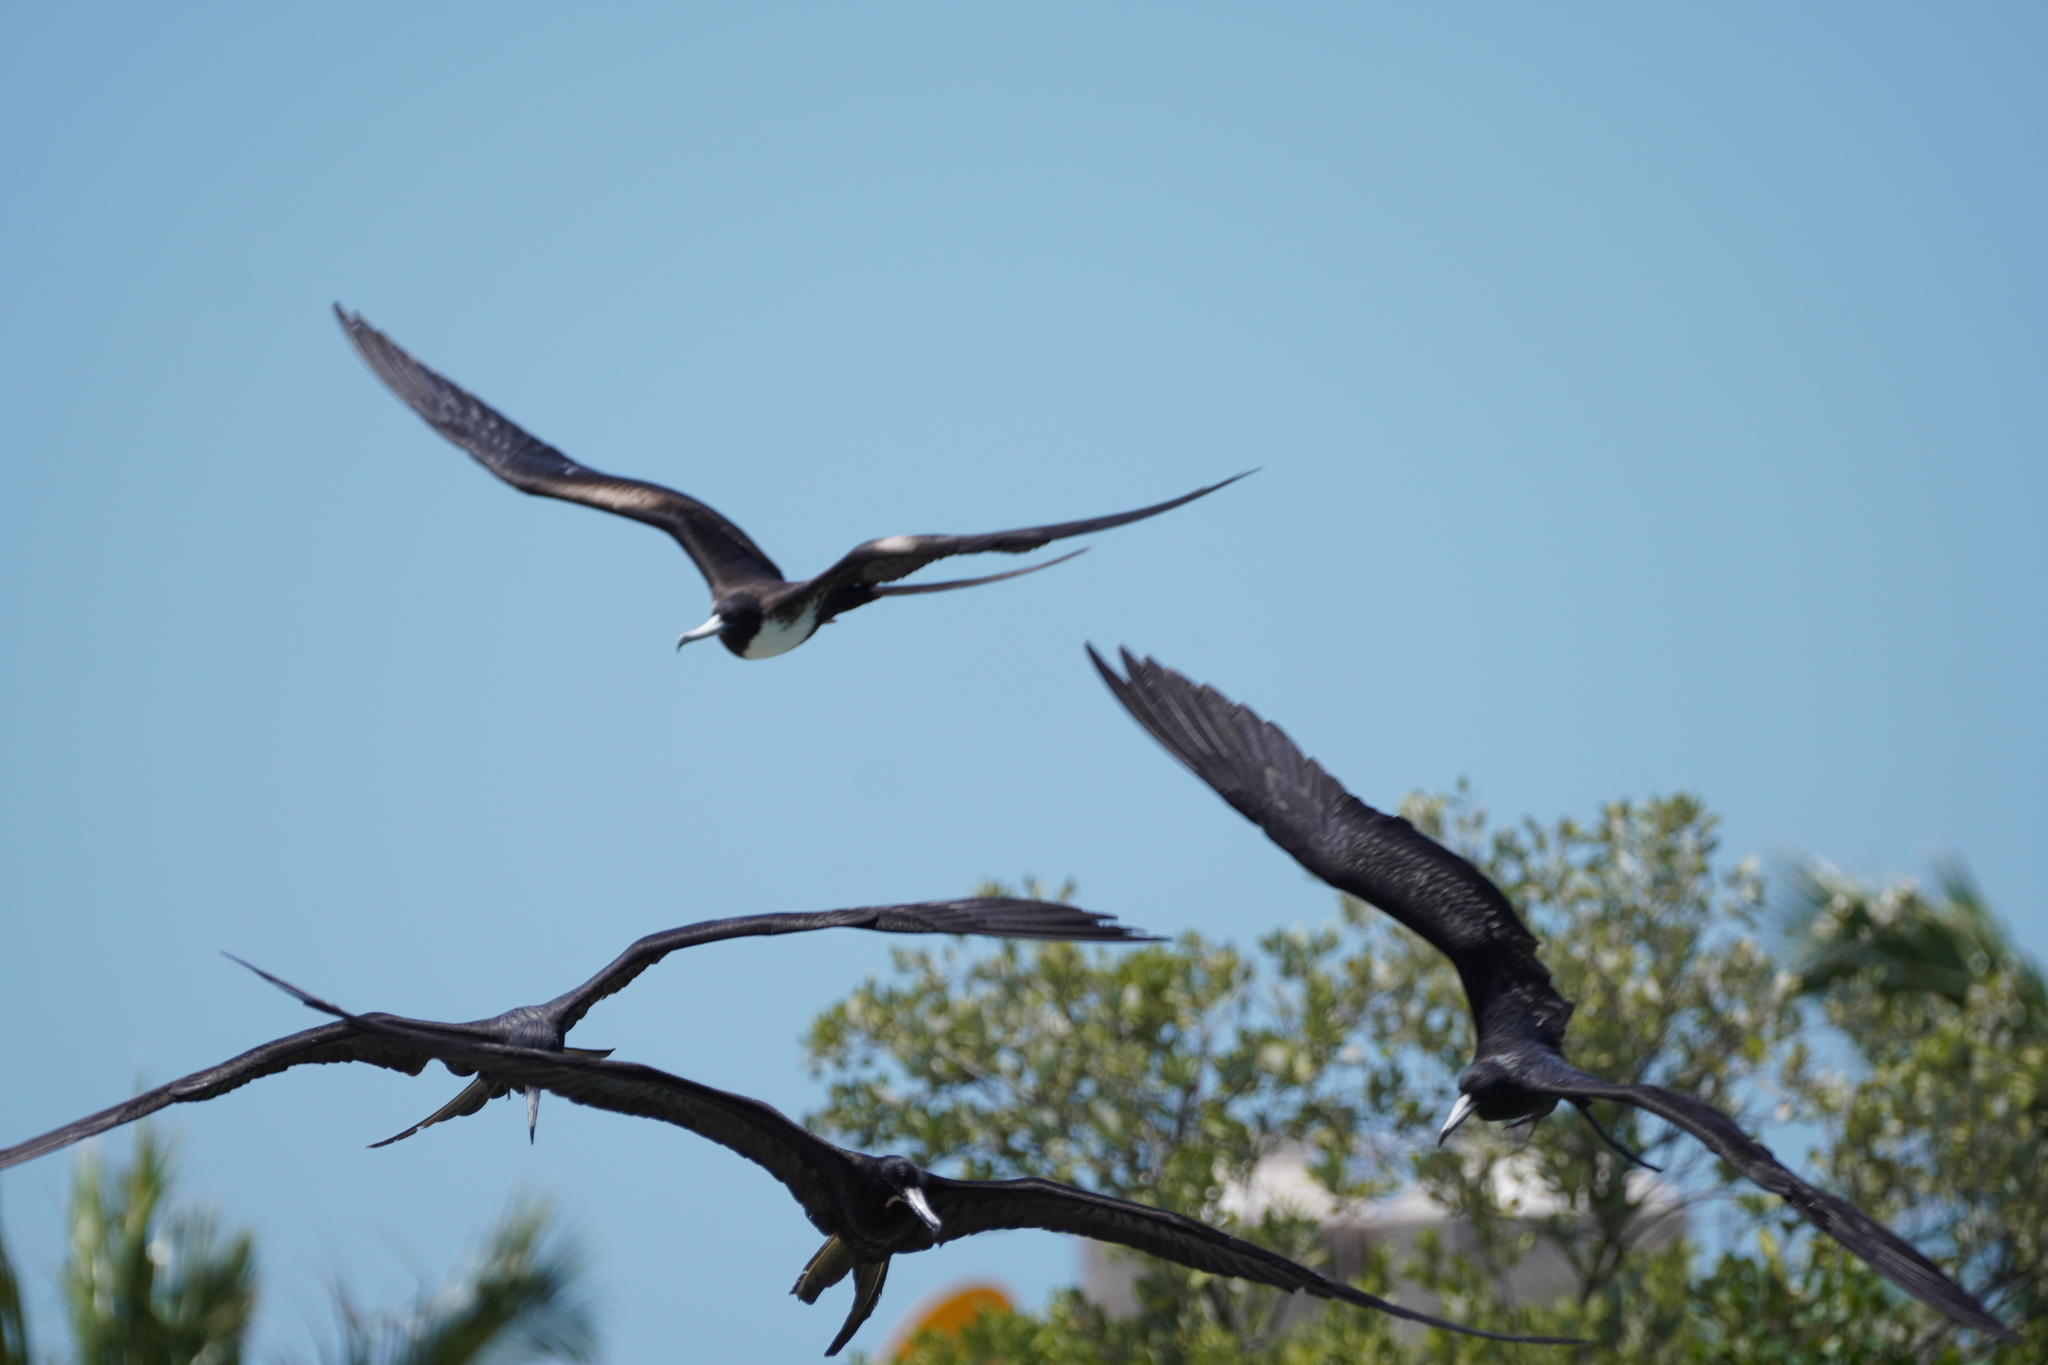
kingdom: Animalia
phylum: Chordata
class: Aves
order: Suliformes
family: Fregatidae
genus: Fregata
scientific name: Fregata magnificens
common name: Magnificent frigatebird
